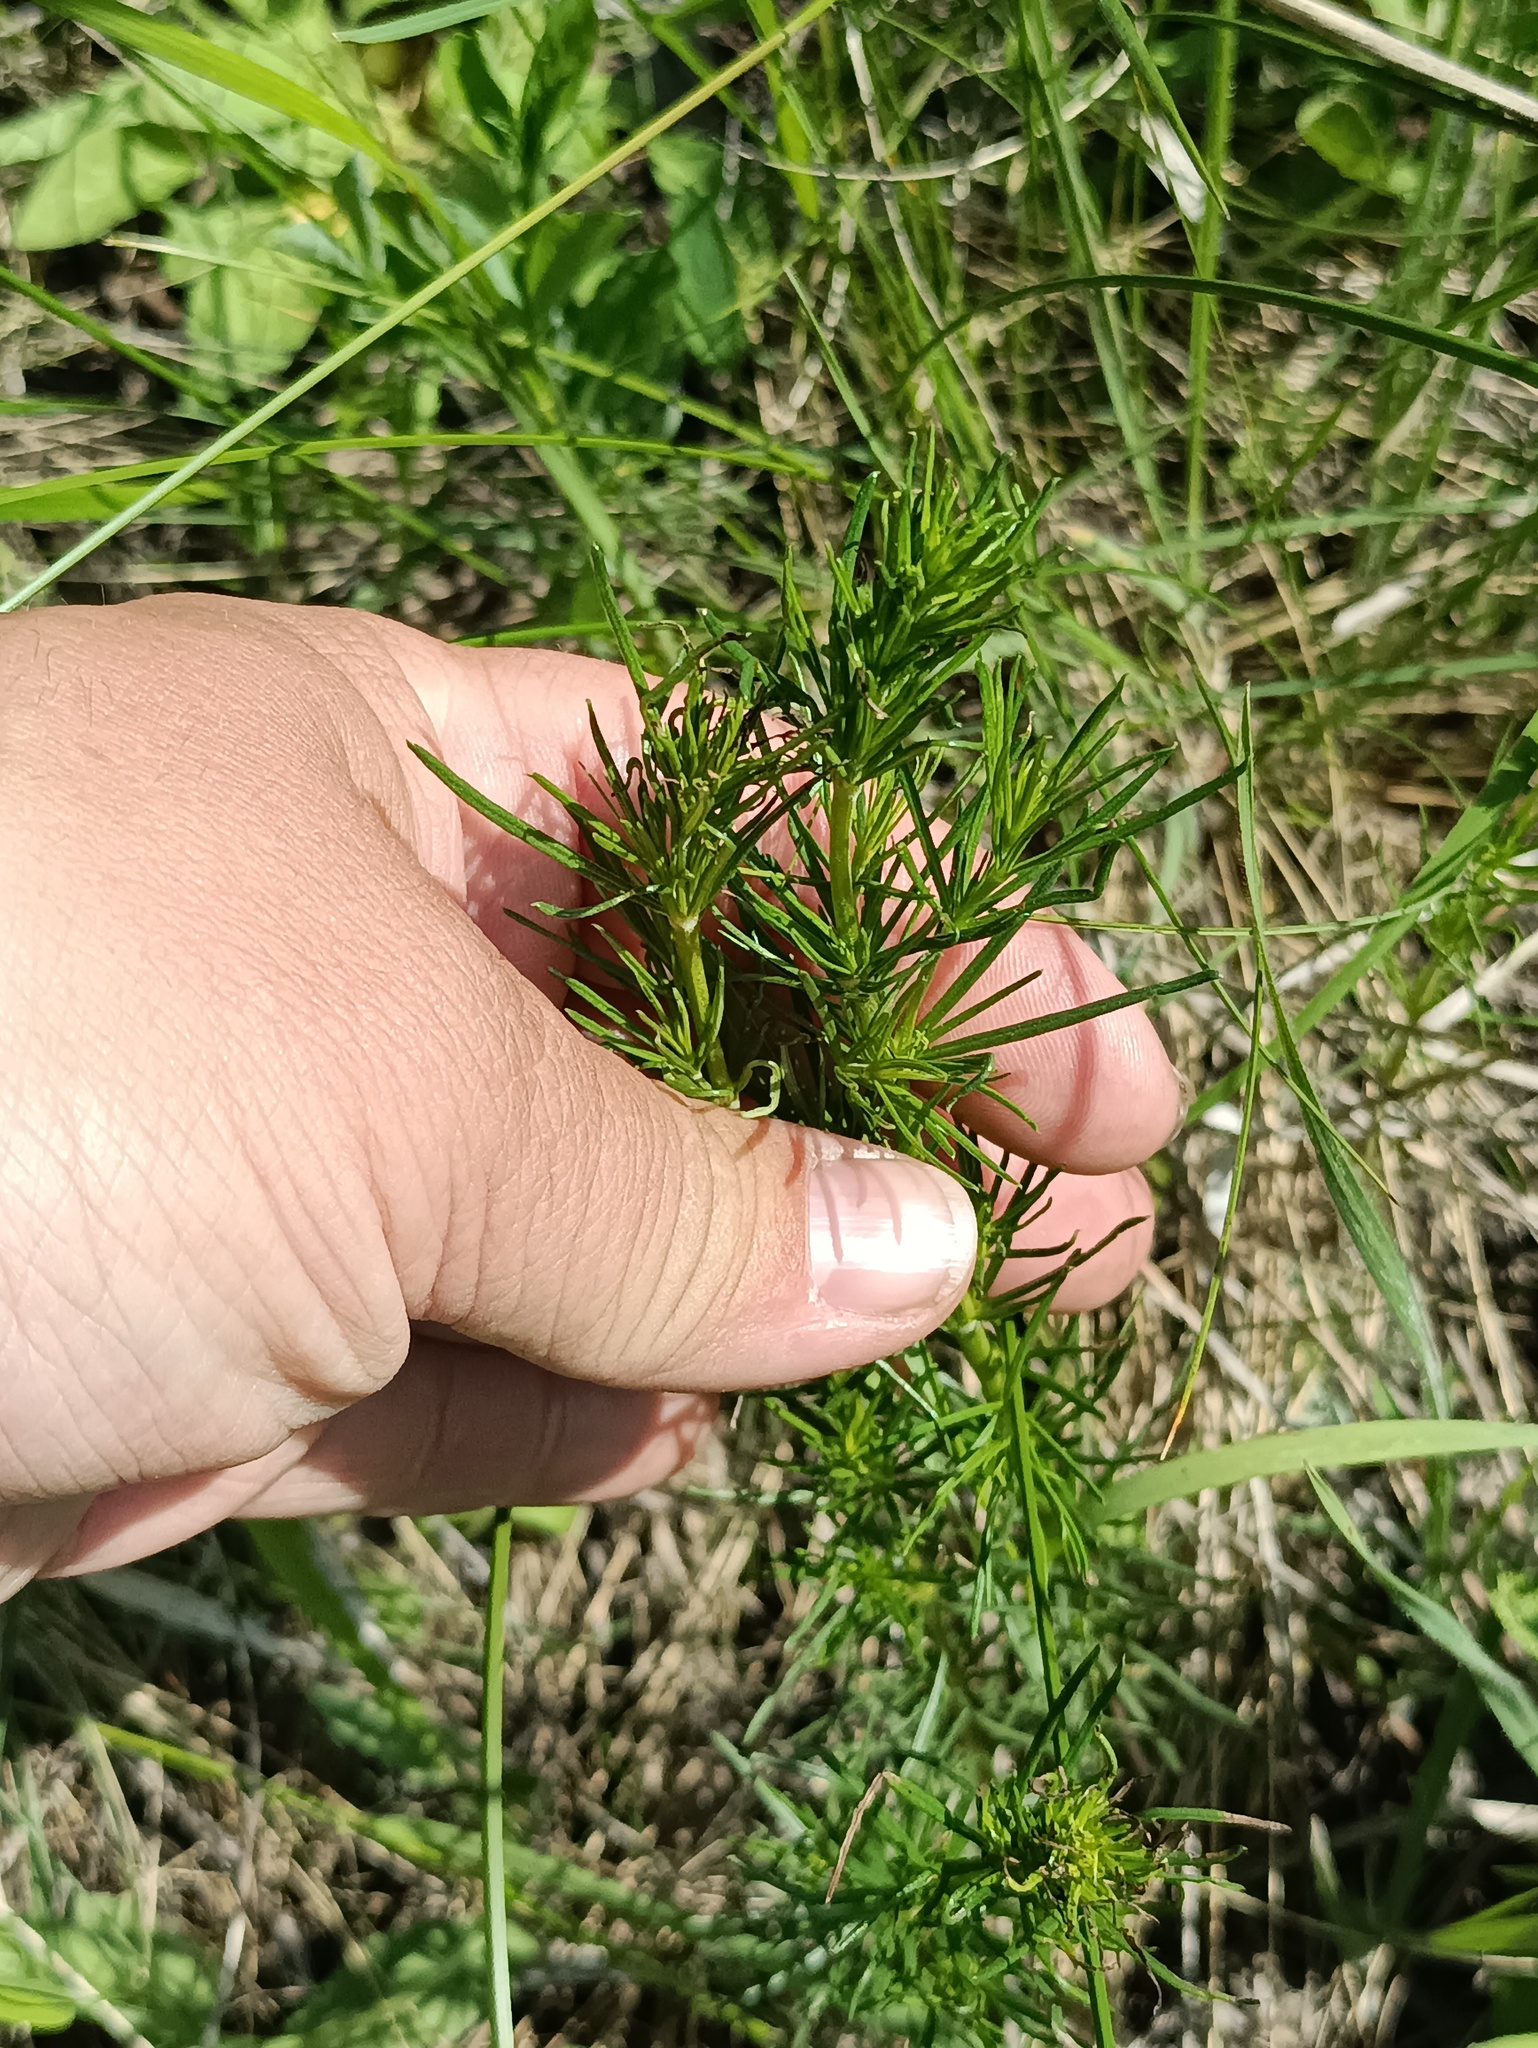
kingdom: Plantae
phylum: Tracheophyta
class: Magnoliopsida
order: Gentianales
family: Rubiaceae
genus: Galium
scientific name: Galium verum
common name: Lady's bedstraw
